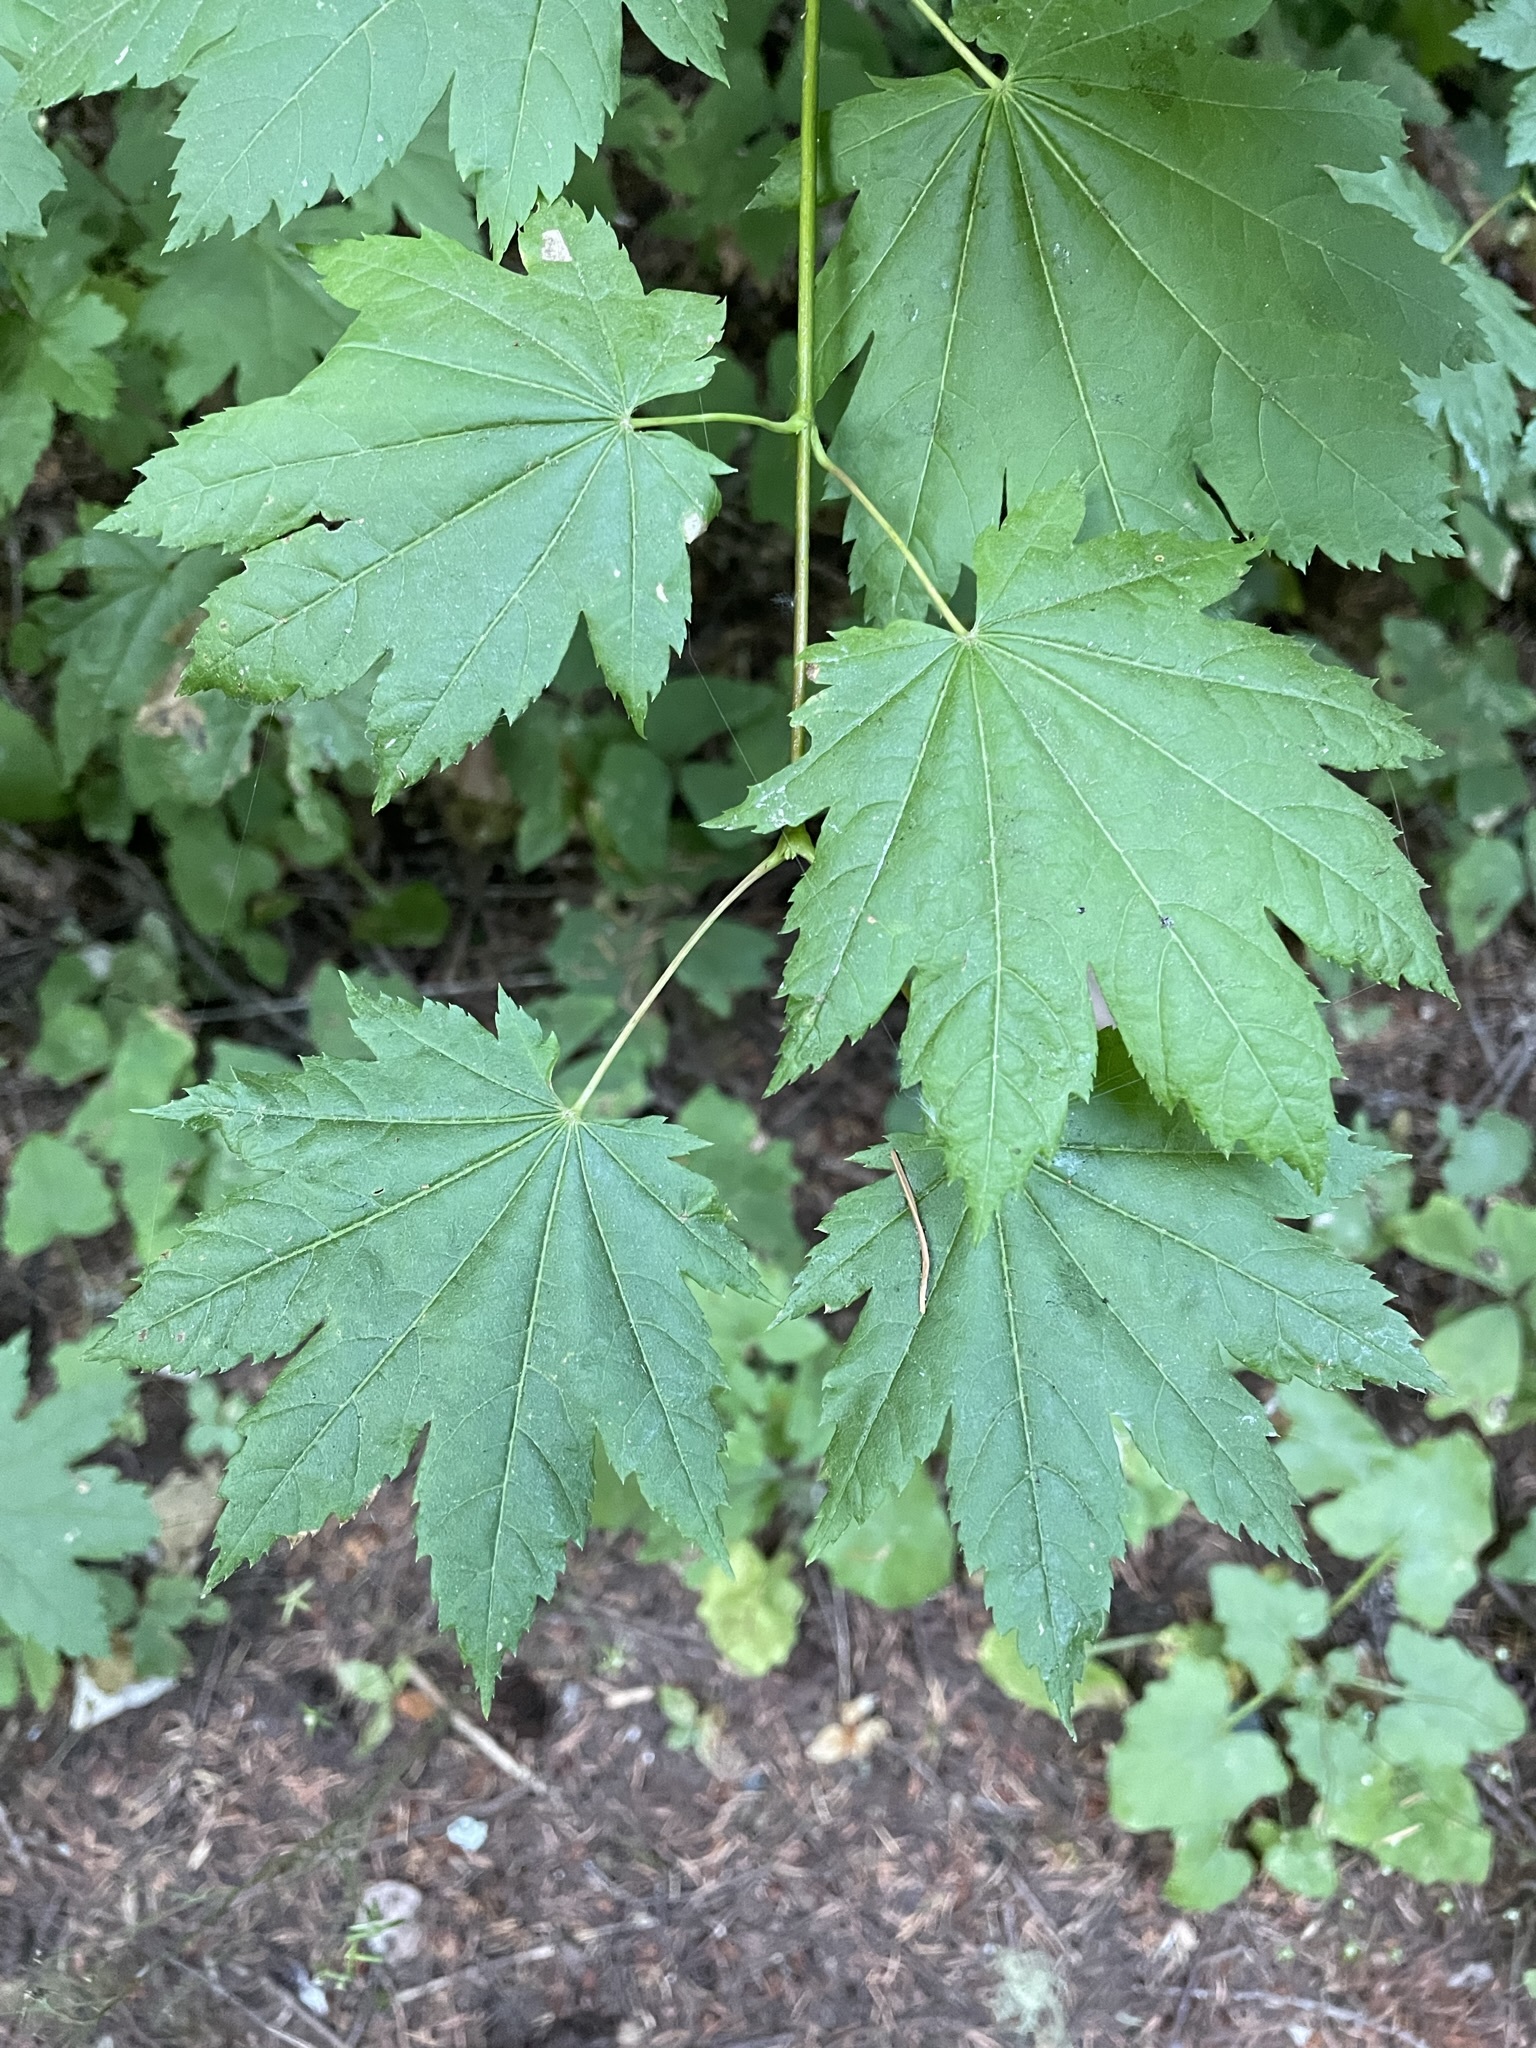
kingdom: Plantae
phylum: Tracheophyta
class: Magnoliopsida
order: Sapindales
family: Sapindaceae
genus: Acer
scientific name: Acer circinatum
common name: Vine maple
